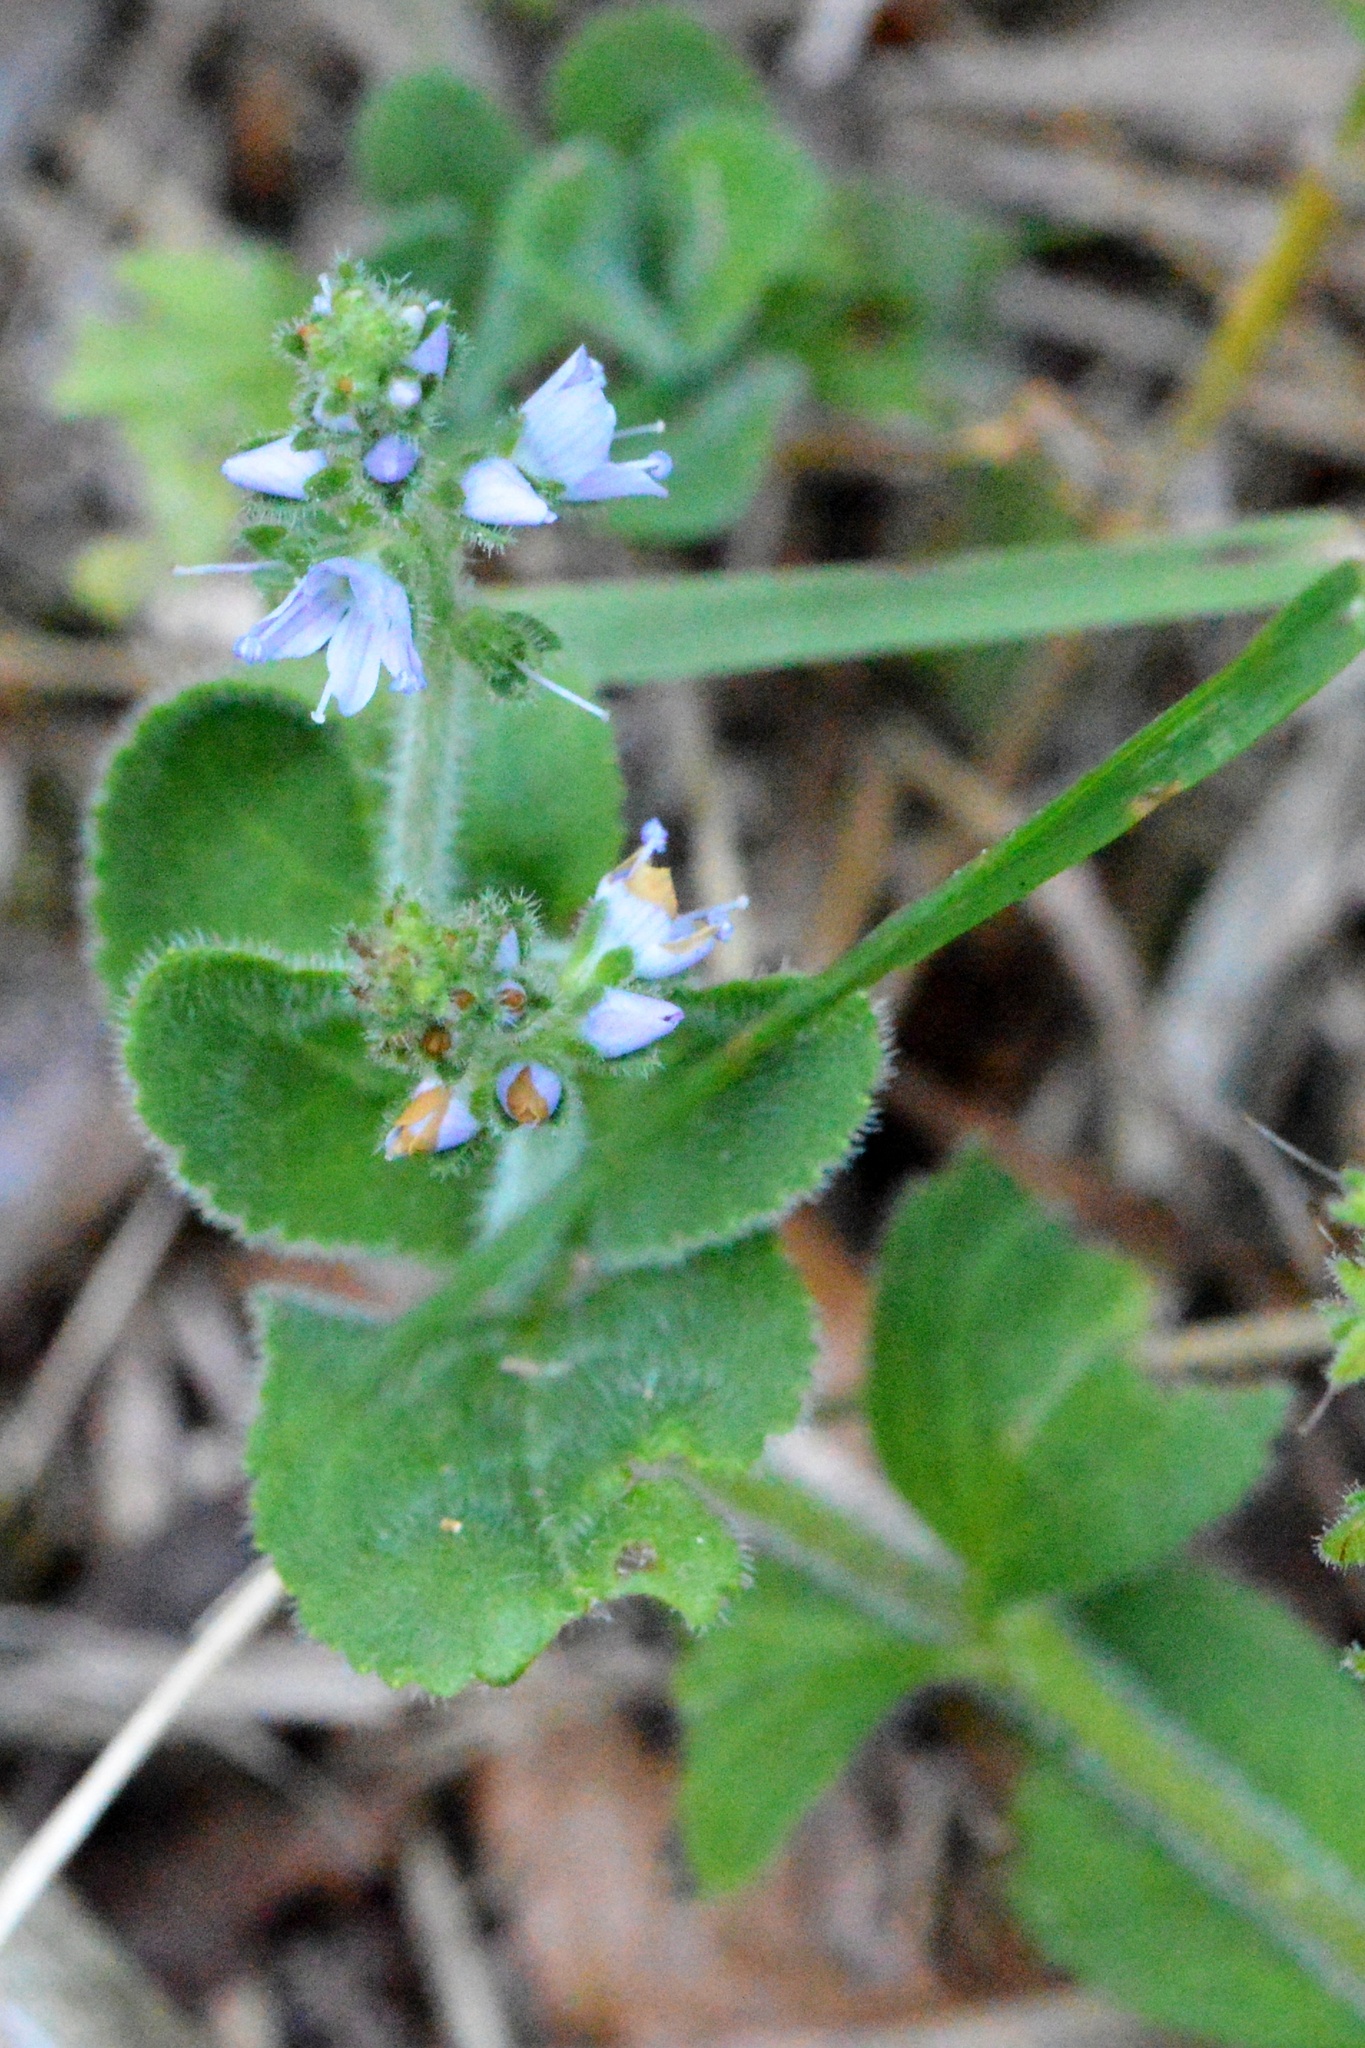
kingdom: Plantae
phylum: Tracheophyta
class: Magnoliopsida
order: Lamiales
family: Plantaginaceae
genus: Veronica
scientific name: Veronica officinalis
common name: Common speedwell
